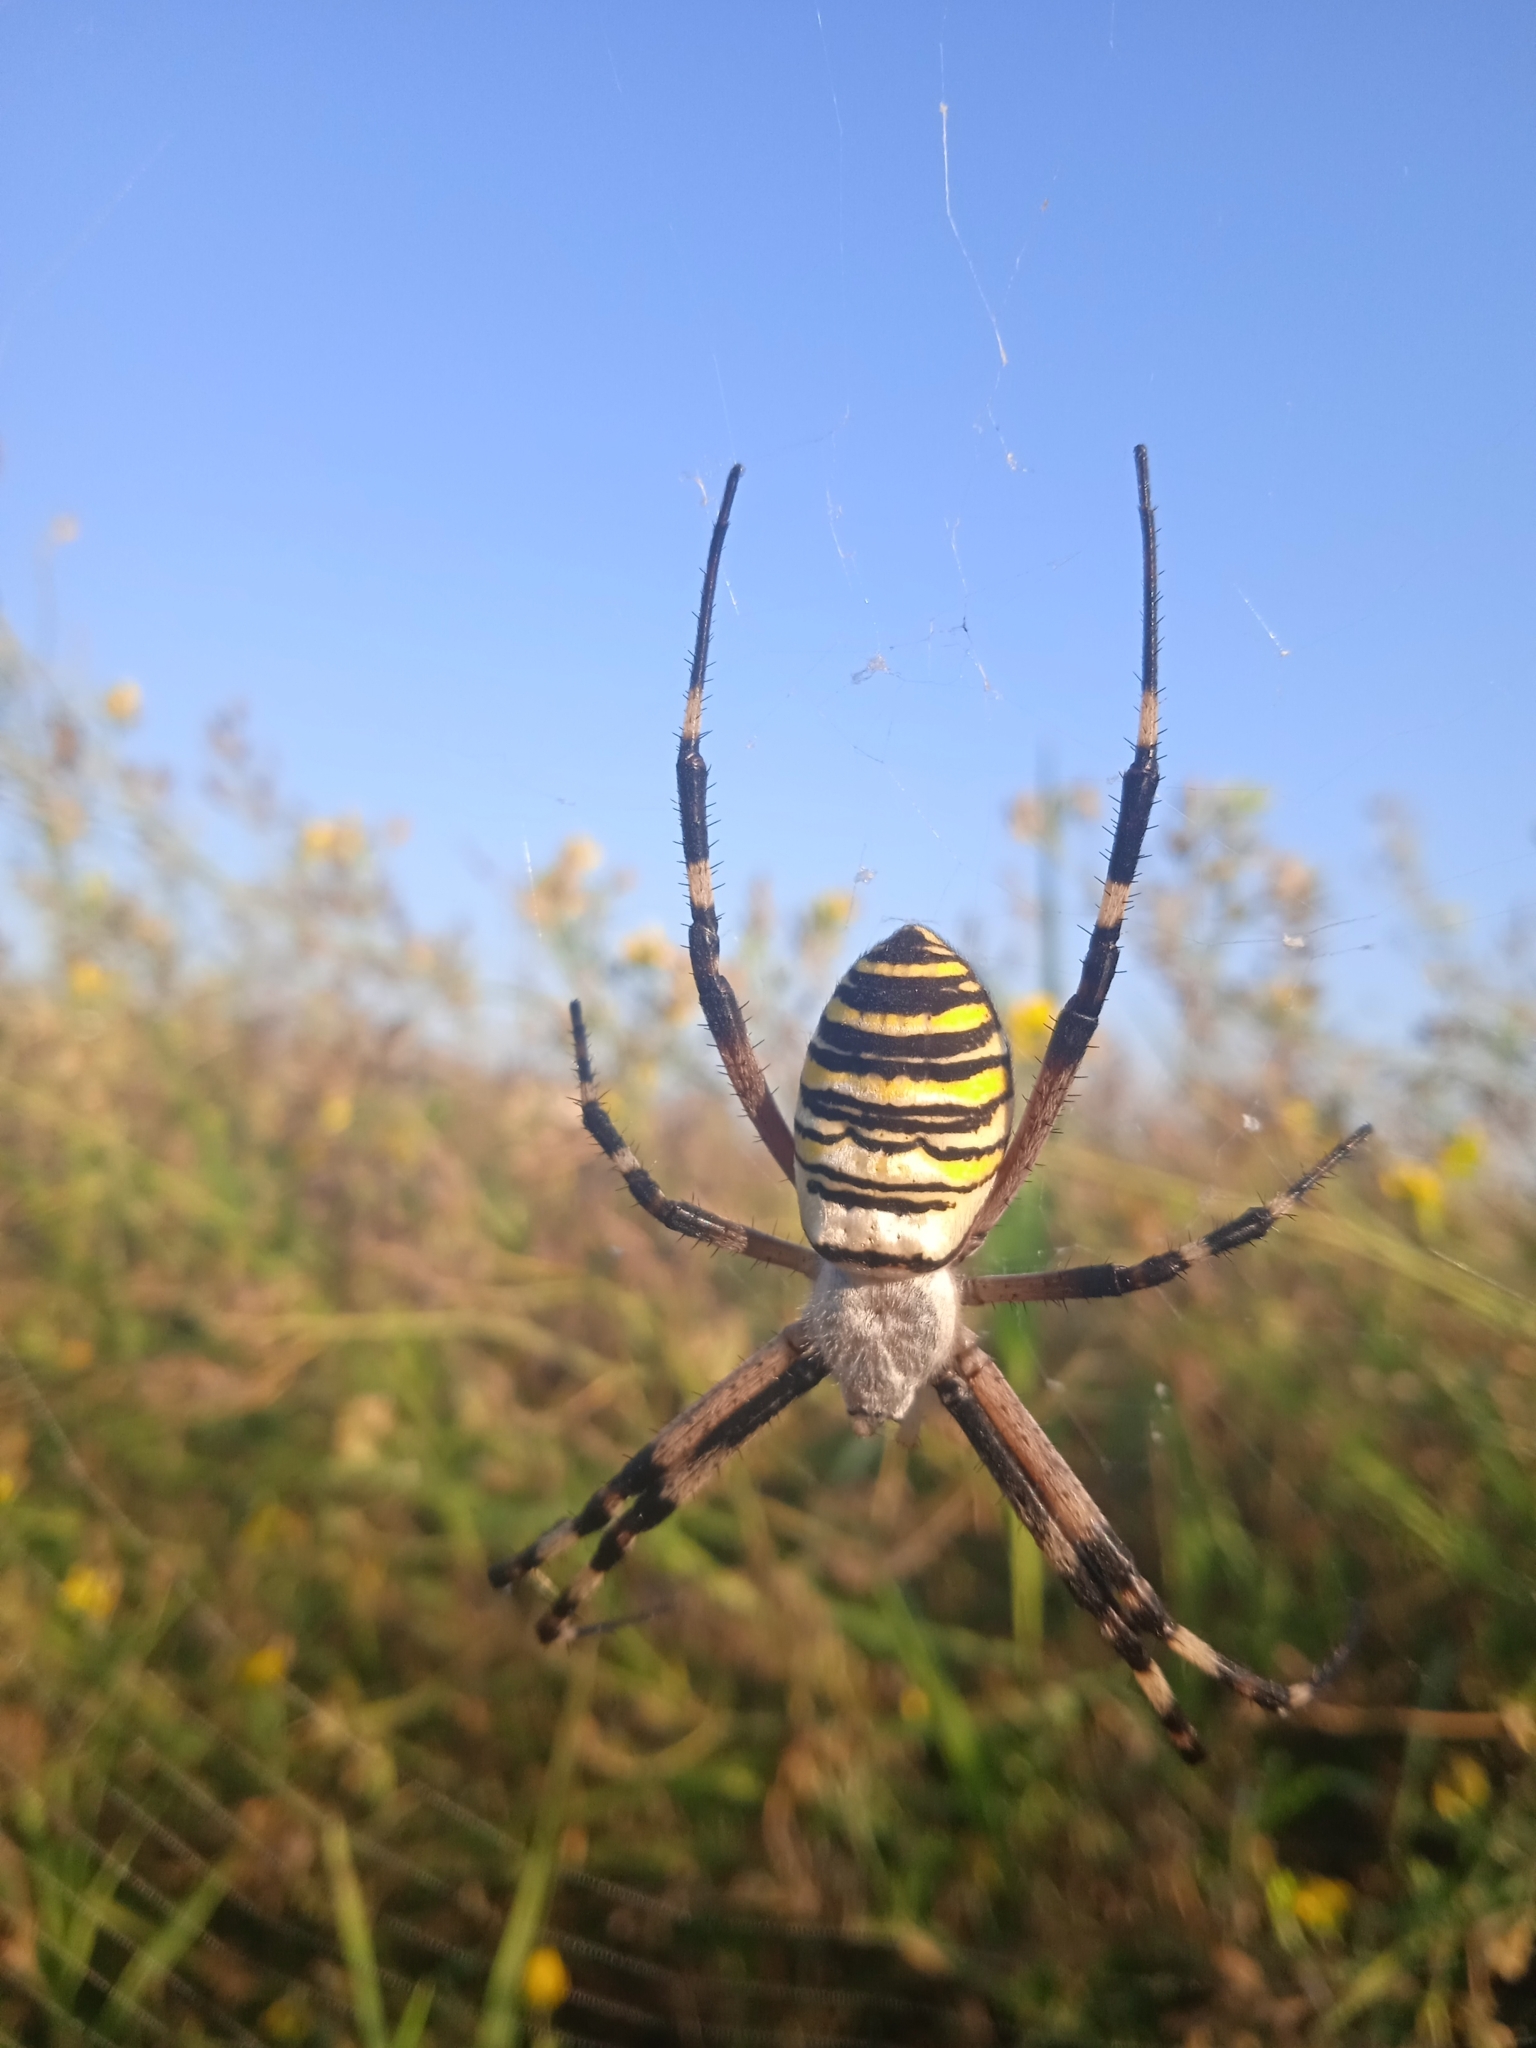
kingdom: Animalia
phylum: Arthropoda
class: Arachnida
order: Araneae
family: Araneidae
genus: Argiope
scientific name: Argiope bruennichi
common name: Wasp spider
